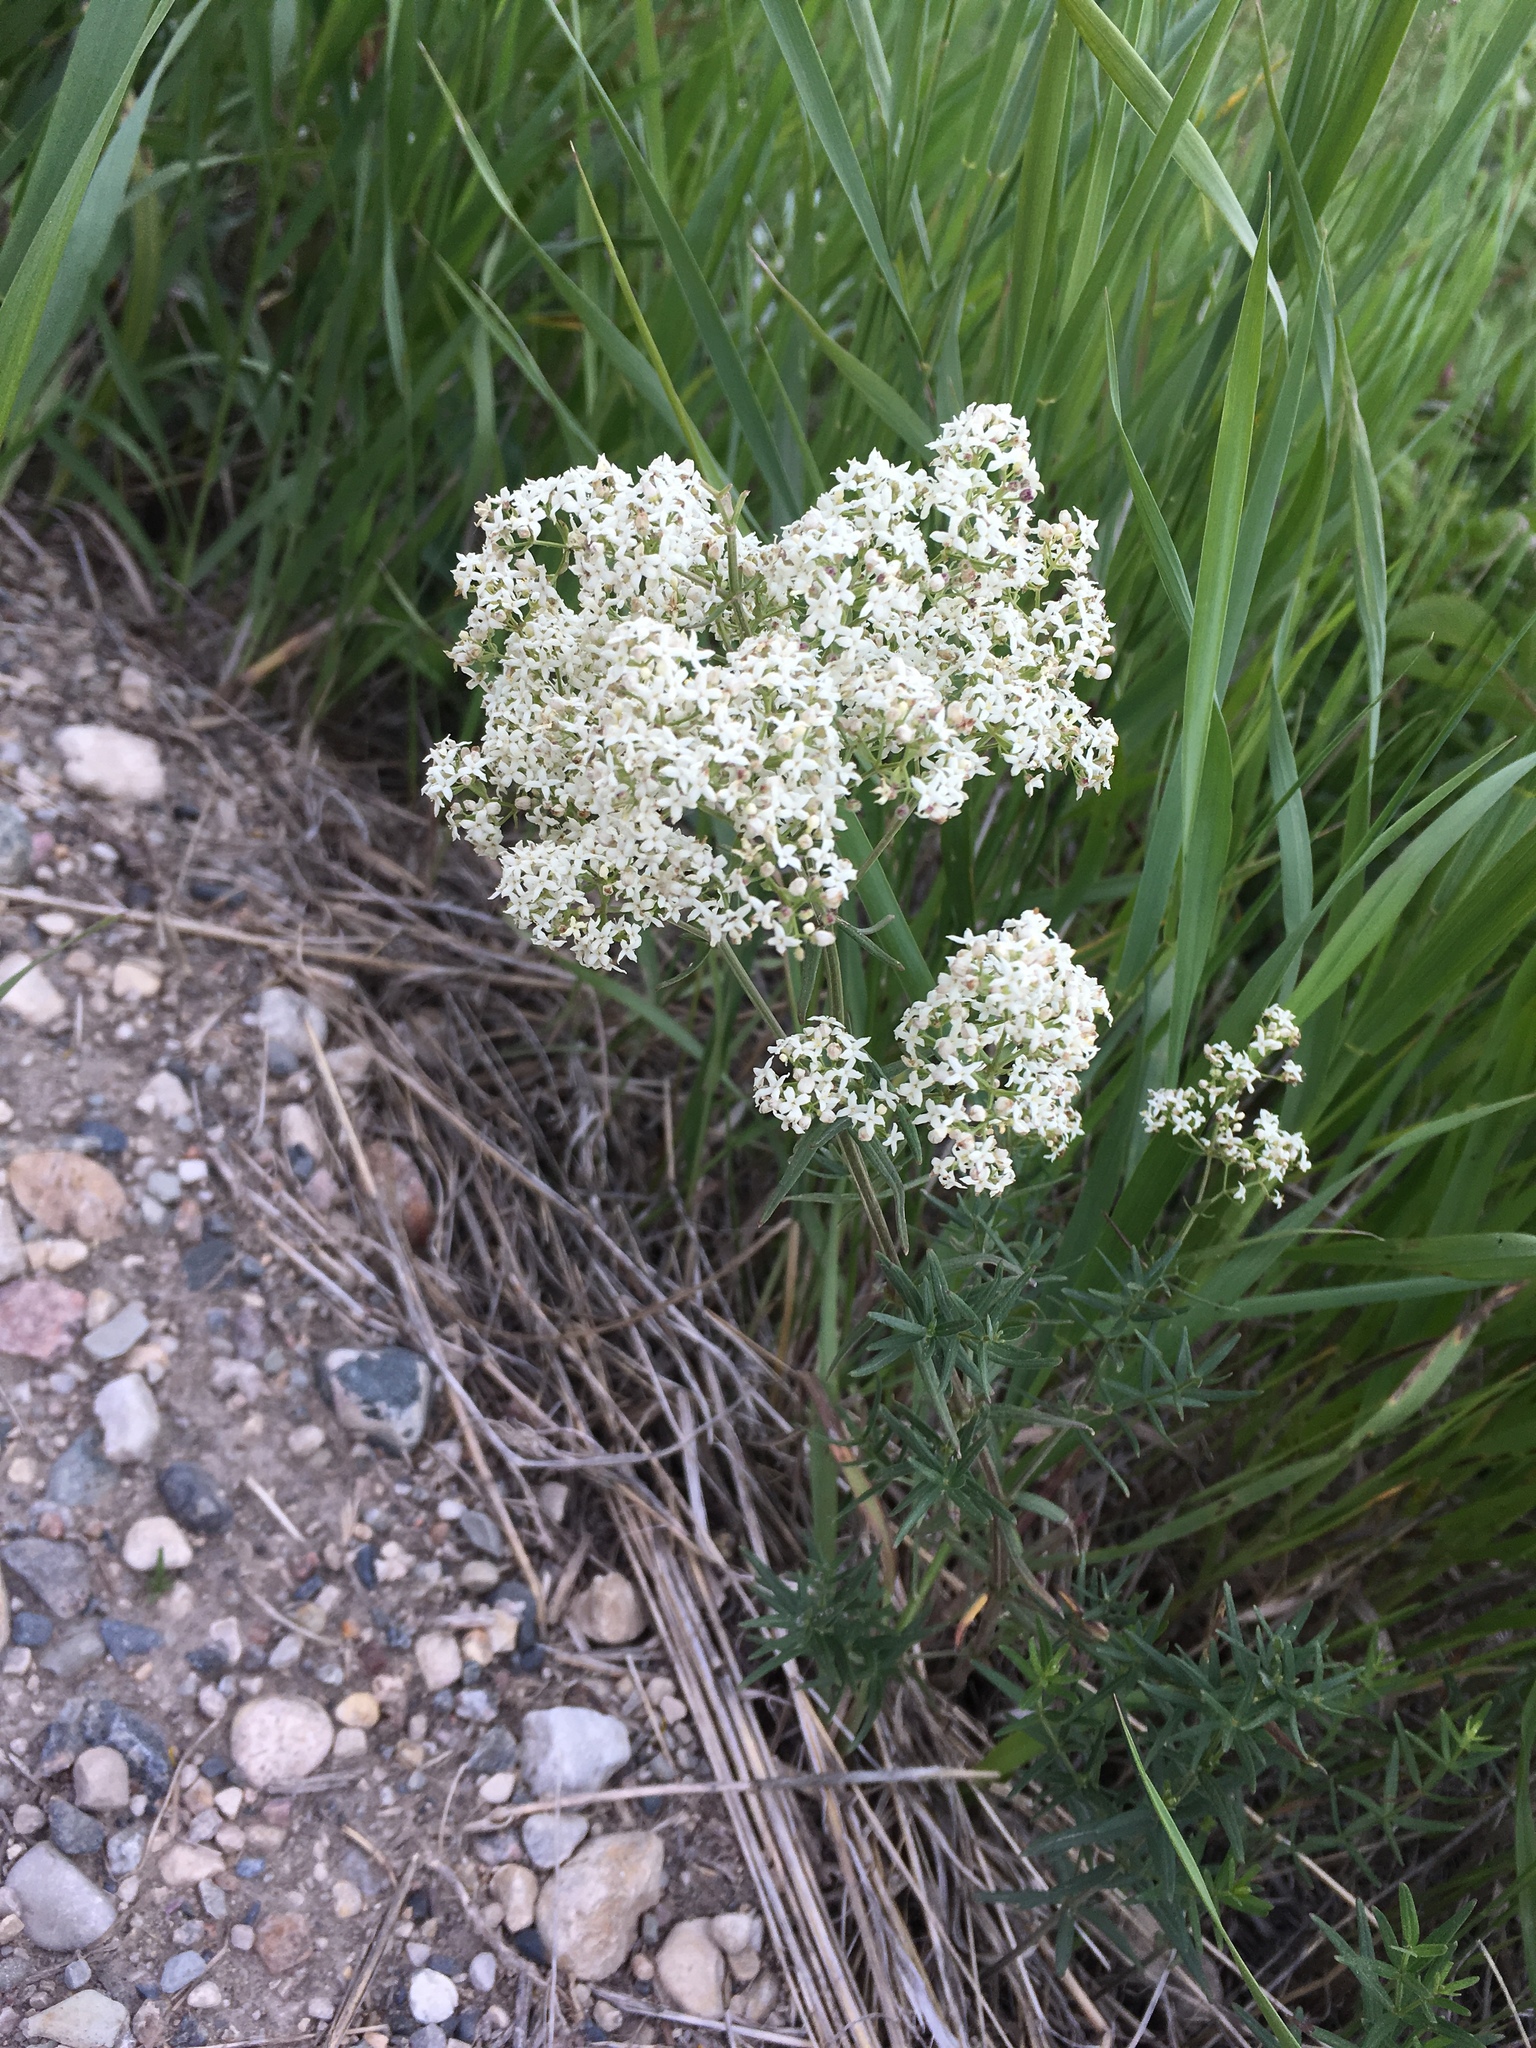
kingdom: Plantae
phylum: Tracheophyta
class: Magnoliopsida
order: Gentianales
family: Rubiaceae
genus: Galium
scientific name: Galium boreale
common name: Northern bedstraw
